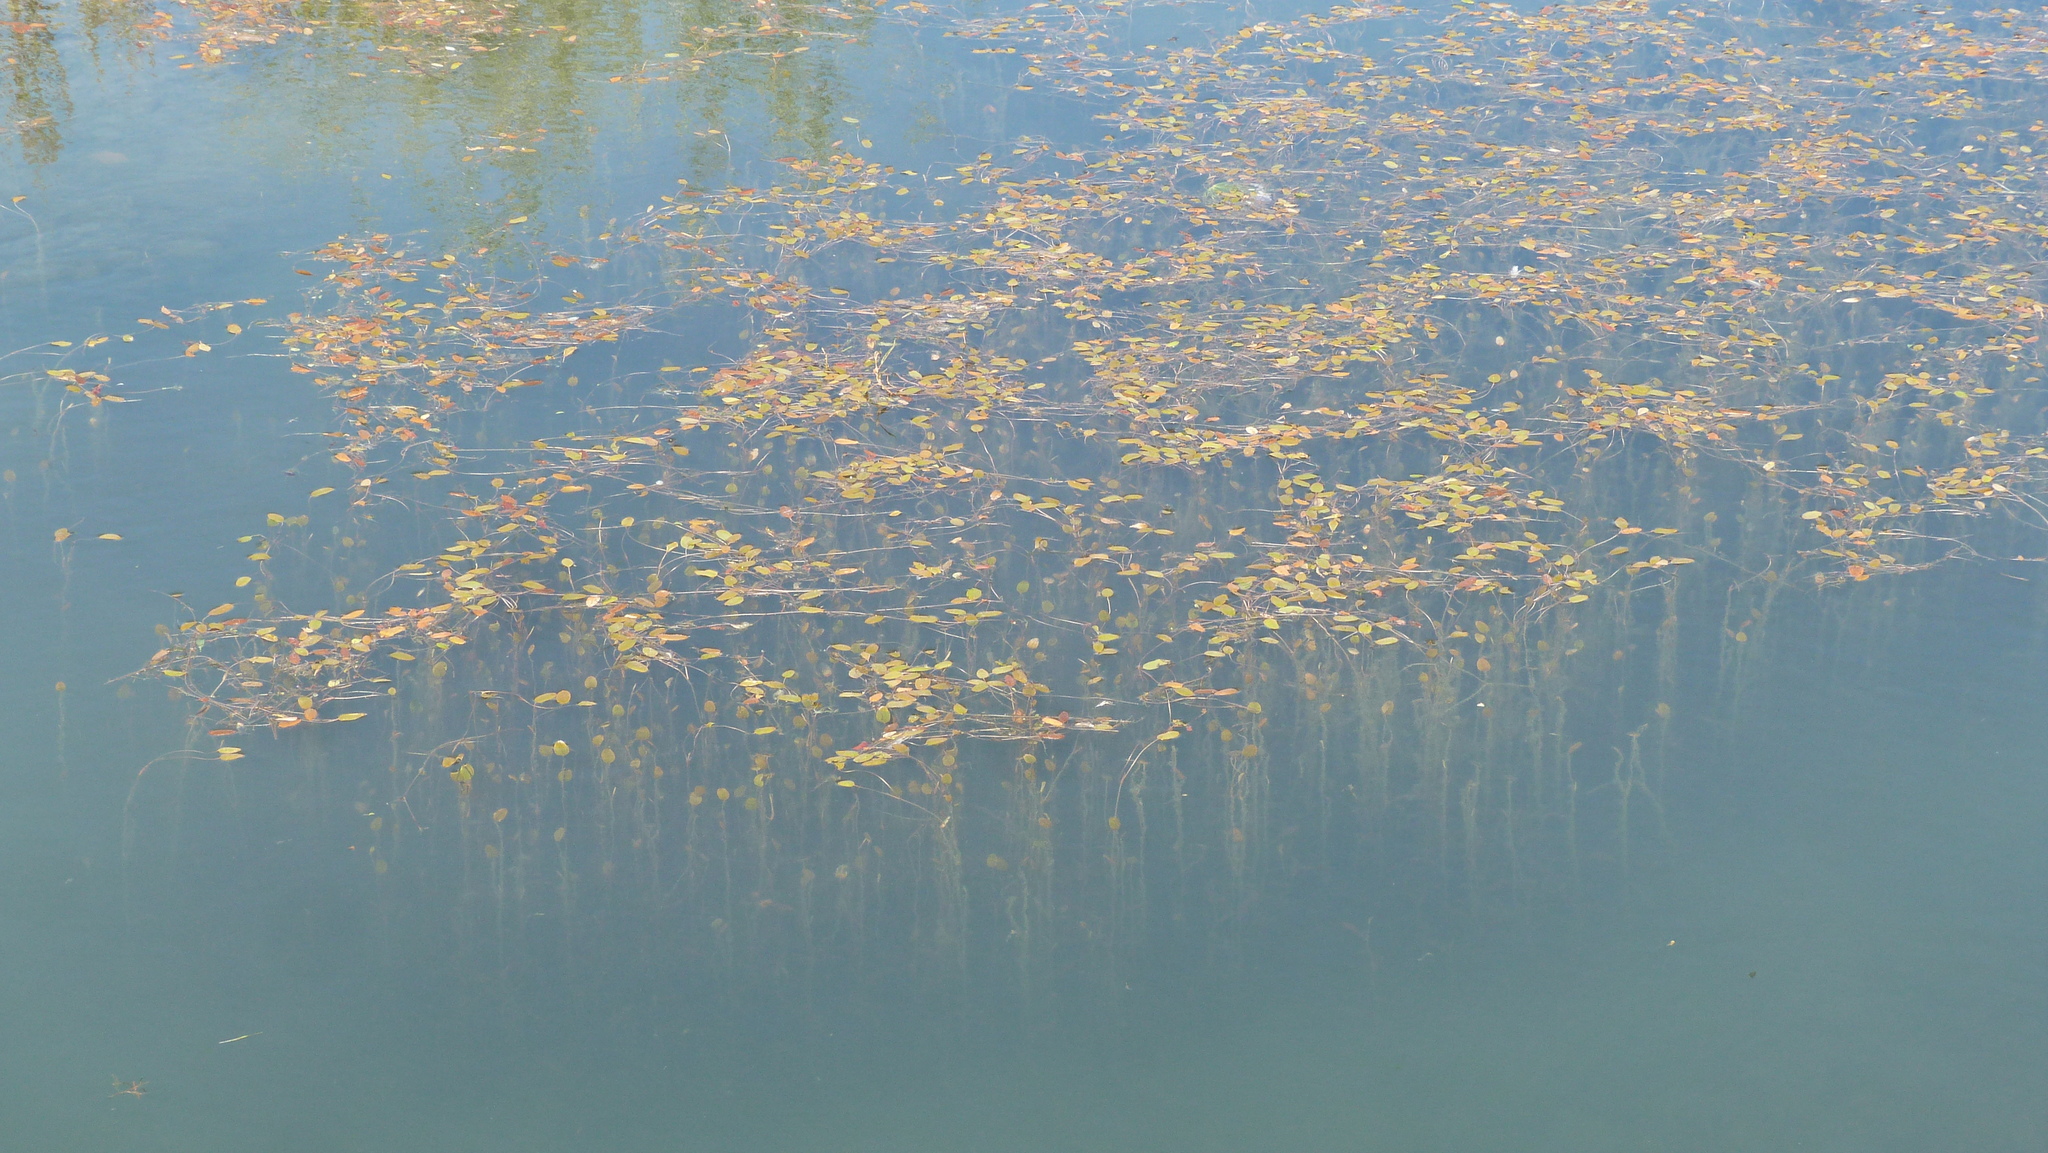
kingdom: Plantae
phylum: Tracheophyta
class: Liliopsida
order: Alismatales
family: Potamogetonaceae
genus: Potamogeton
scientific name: Potamogeton cheesemanii
